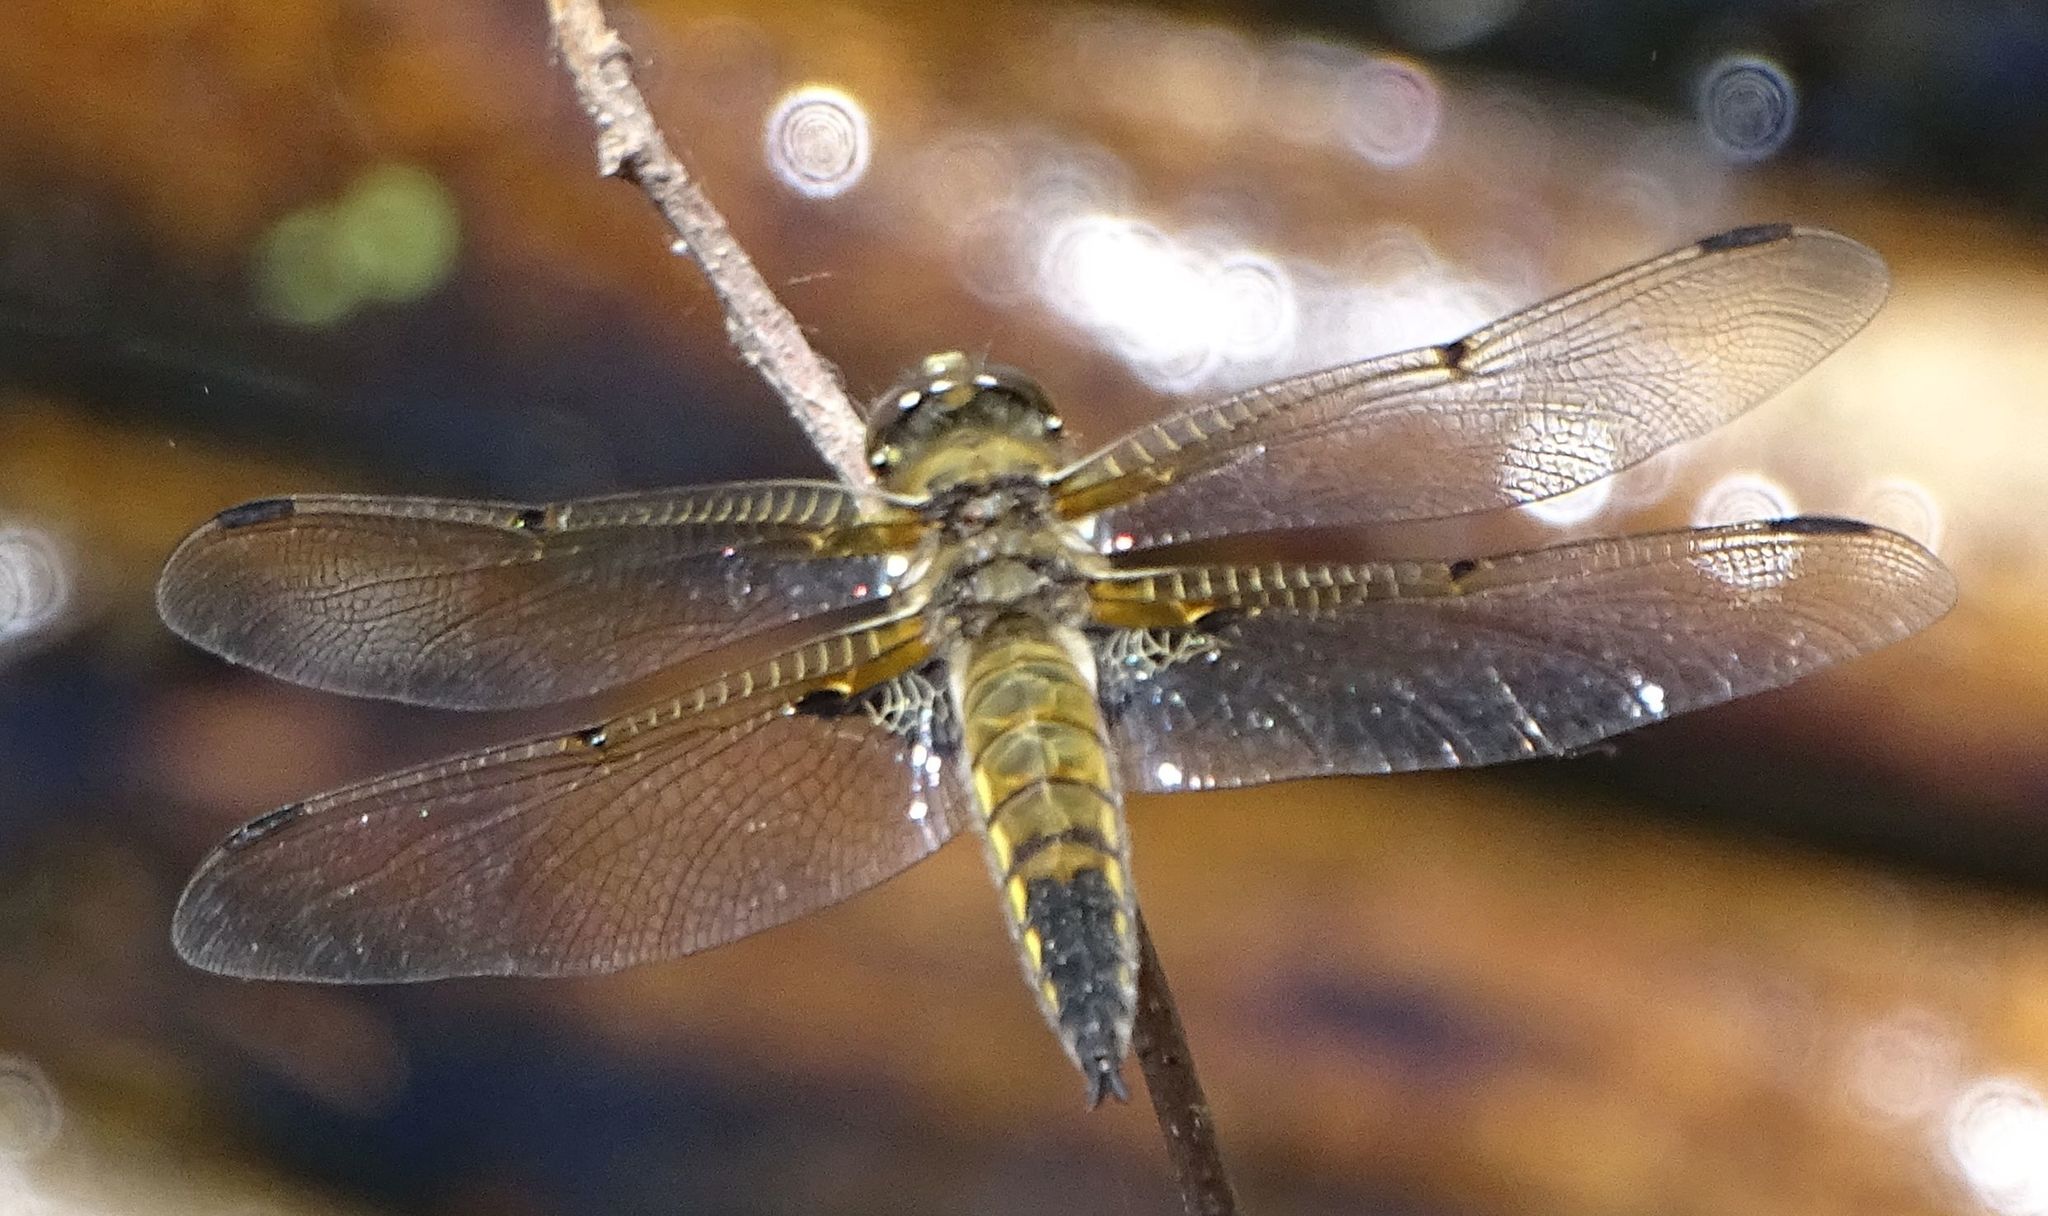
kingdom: Animalia
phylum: Arthropoda
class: Insecta
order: Odonata
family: Libellulidae
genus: Libellula
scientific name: Libellula quadrimaculata
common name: Four-spotted chaser
